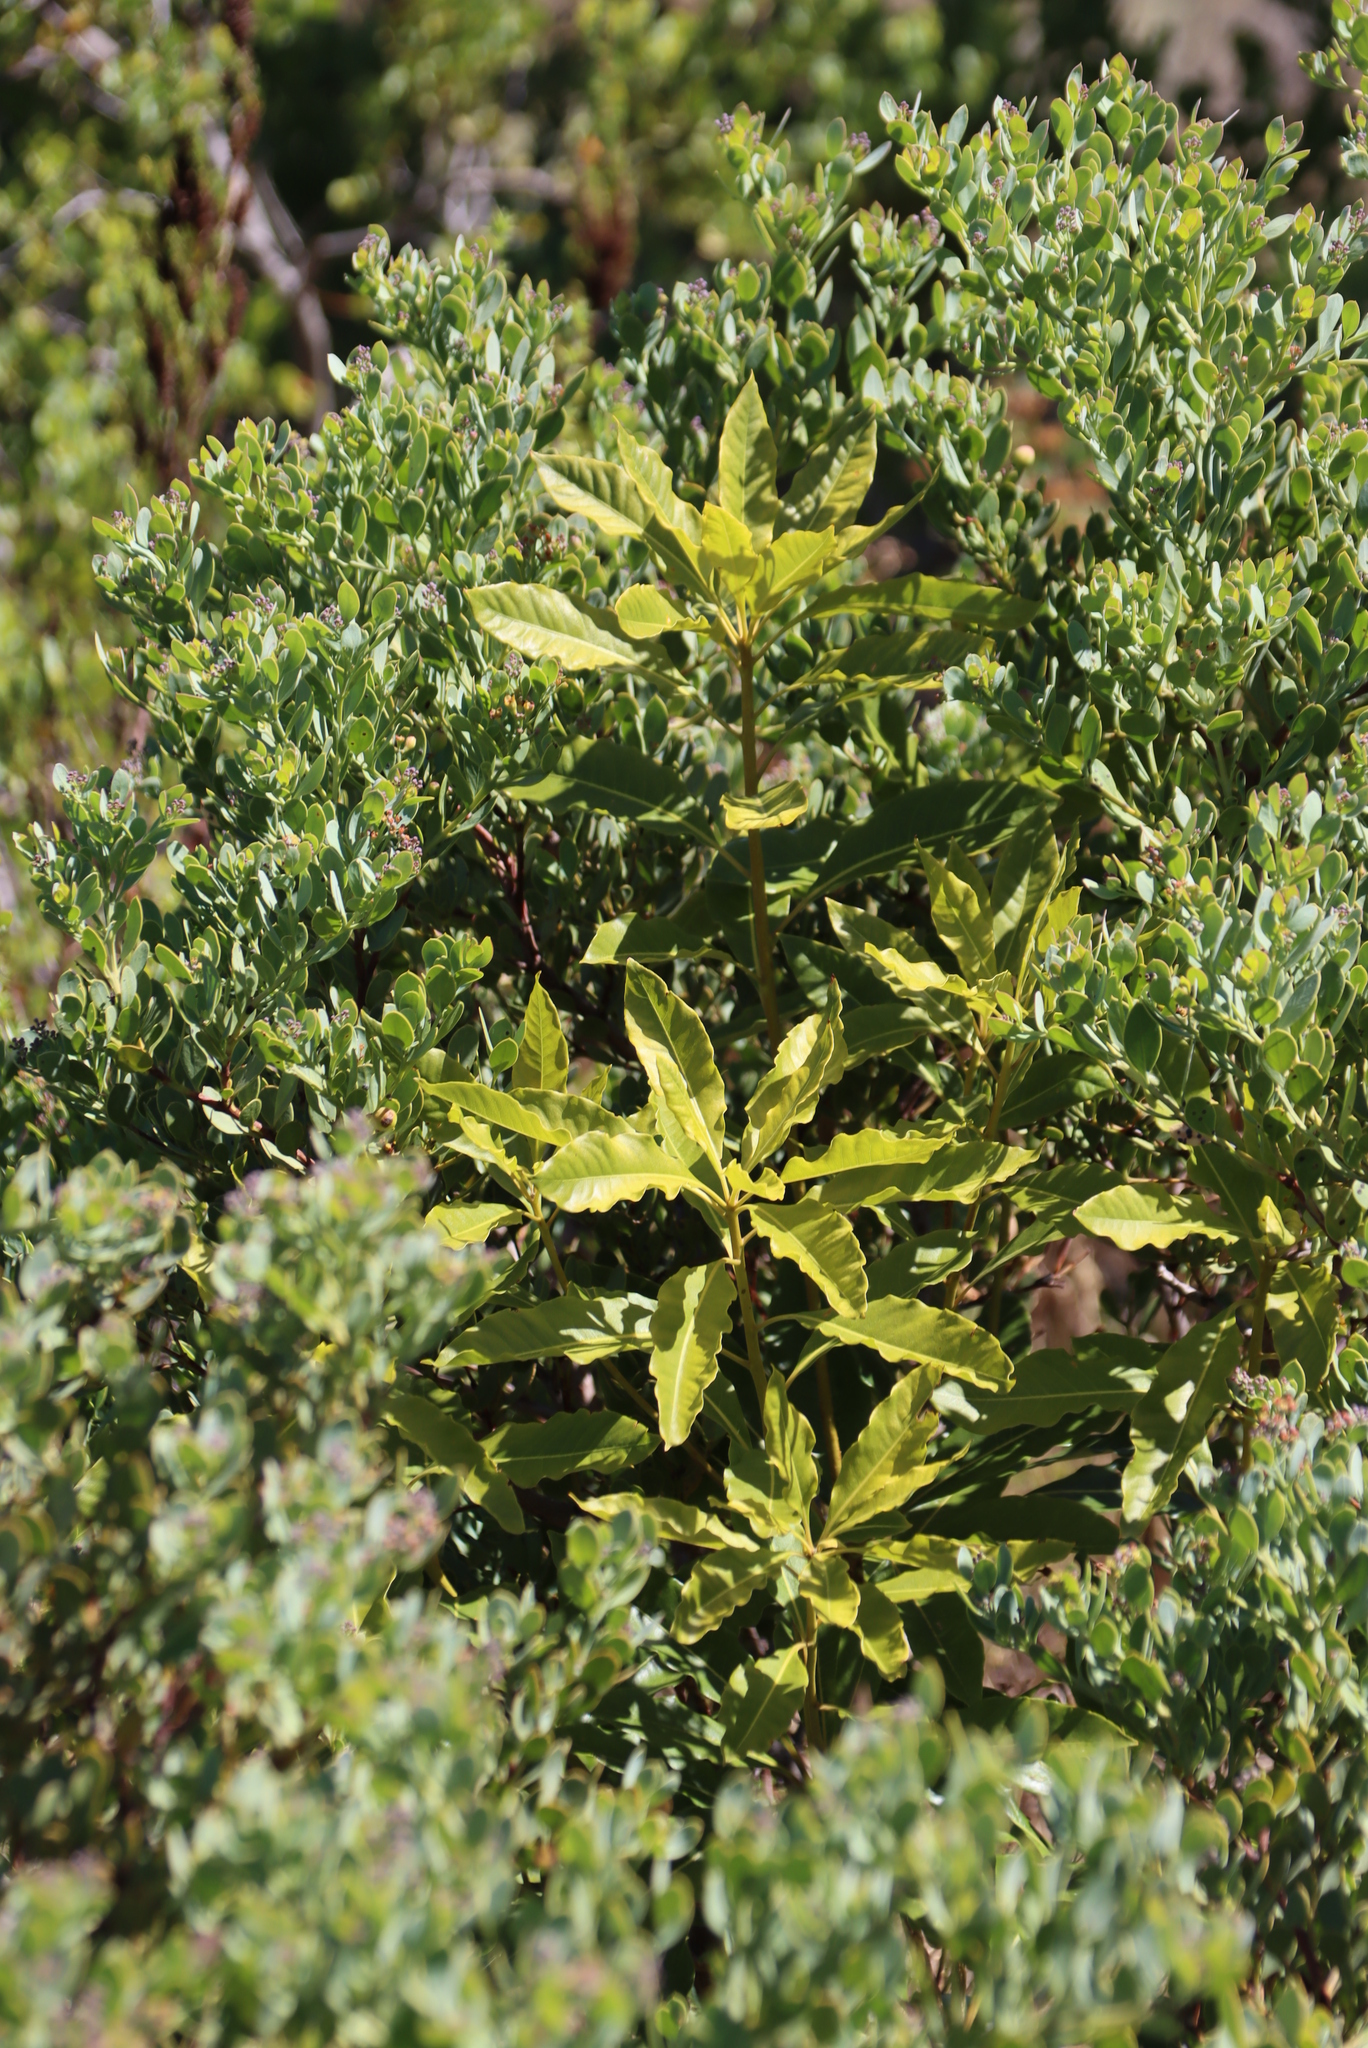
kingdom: Plantae
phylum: Tracheophyta
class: Magnoliopsida
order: Apiales
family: Pittosporaceae
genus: Pittosporum
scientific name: Pittosporum undulatum
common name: Australian cheesewood
